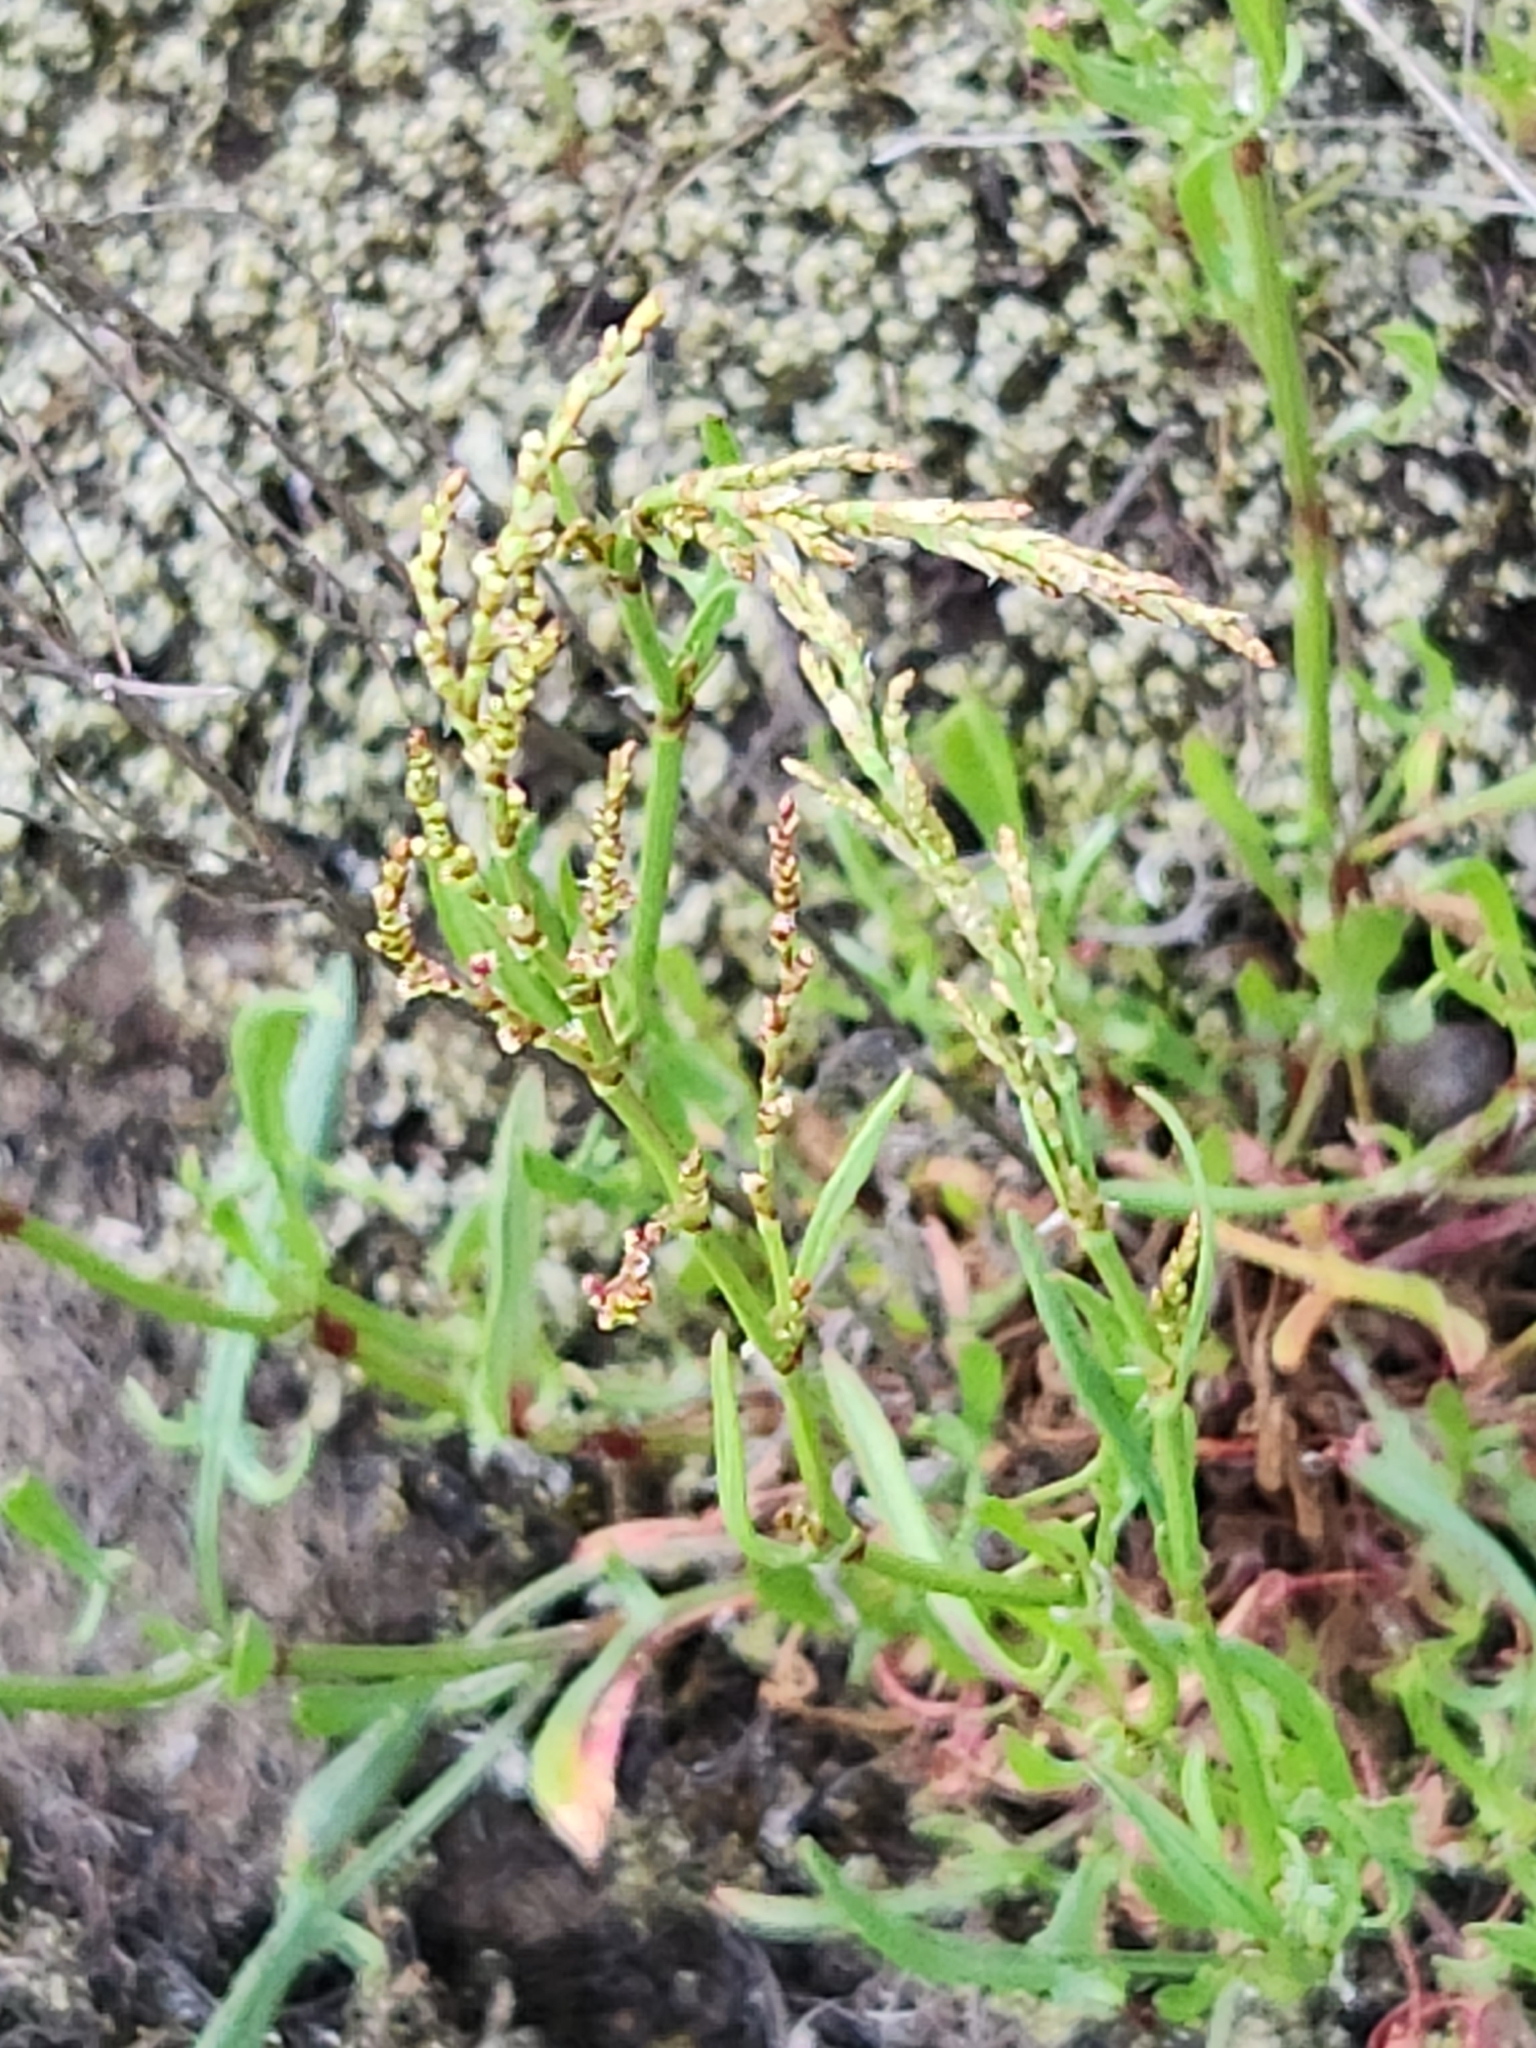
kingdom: Plantae
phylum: Tracheophyta
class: Magnoliopsida
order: Caryophyllales
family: Polygonaceae
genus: Rumex
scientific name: Rumex acetosella
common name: Common sheep sorrel
